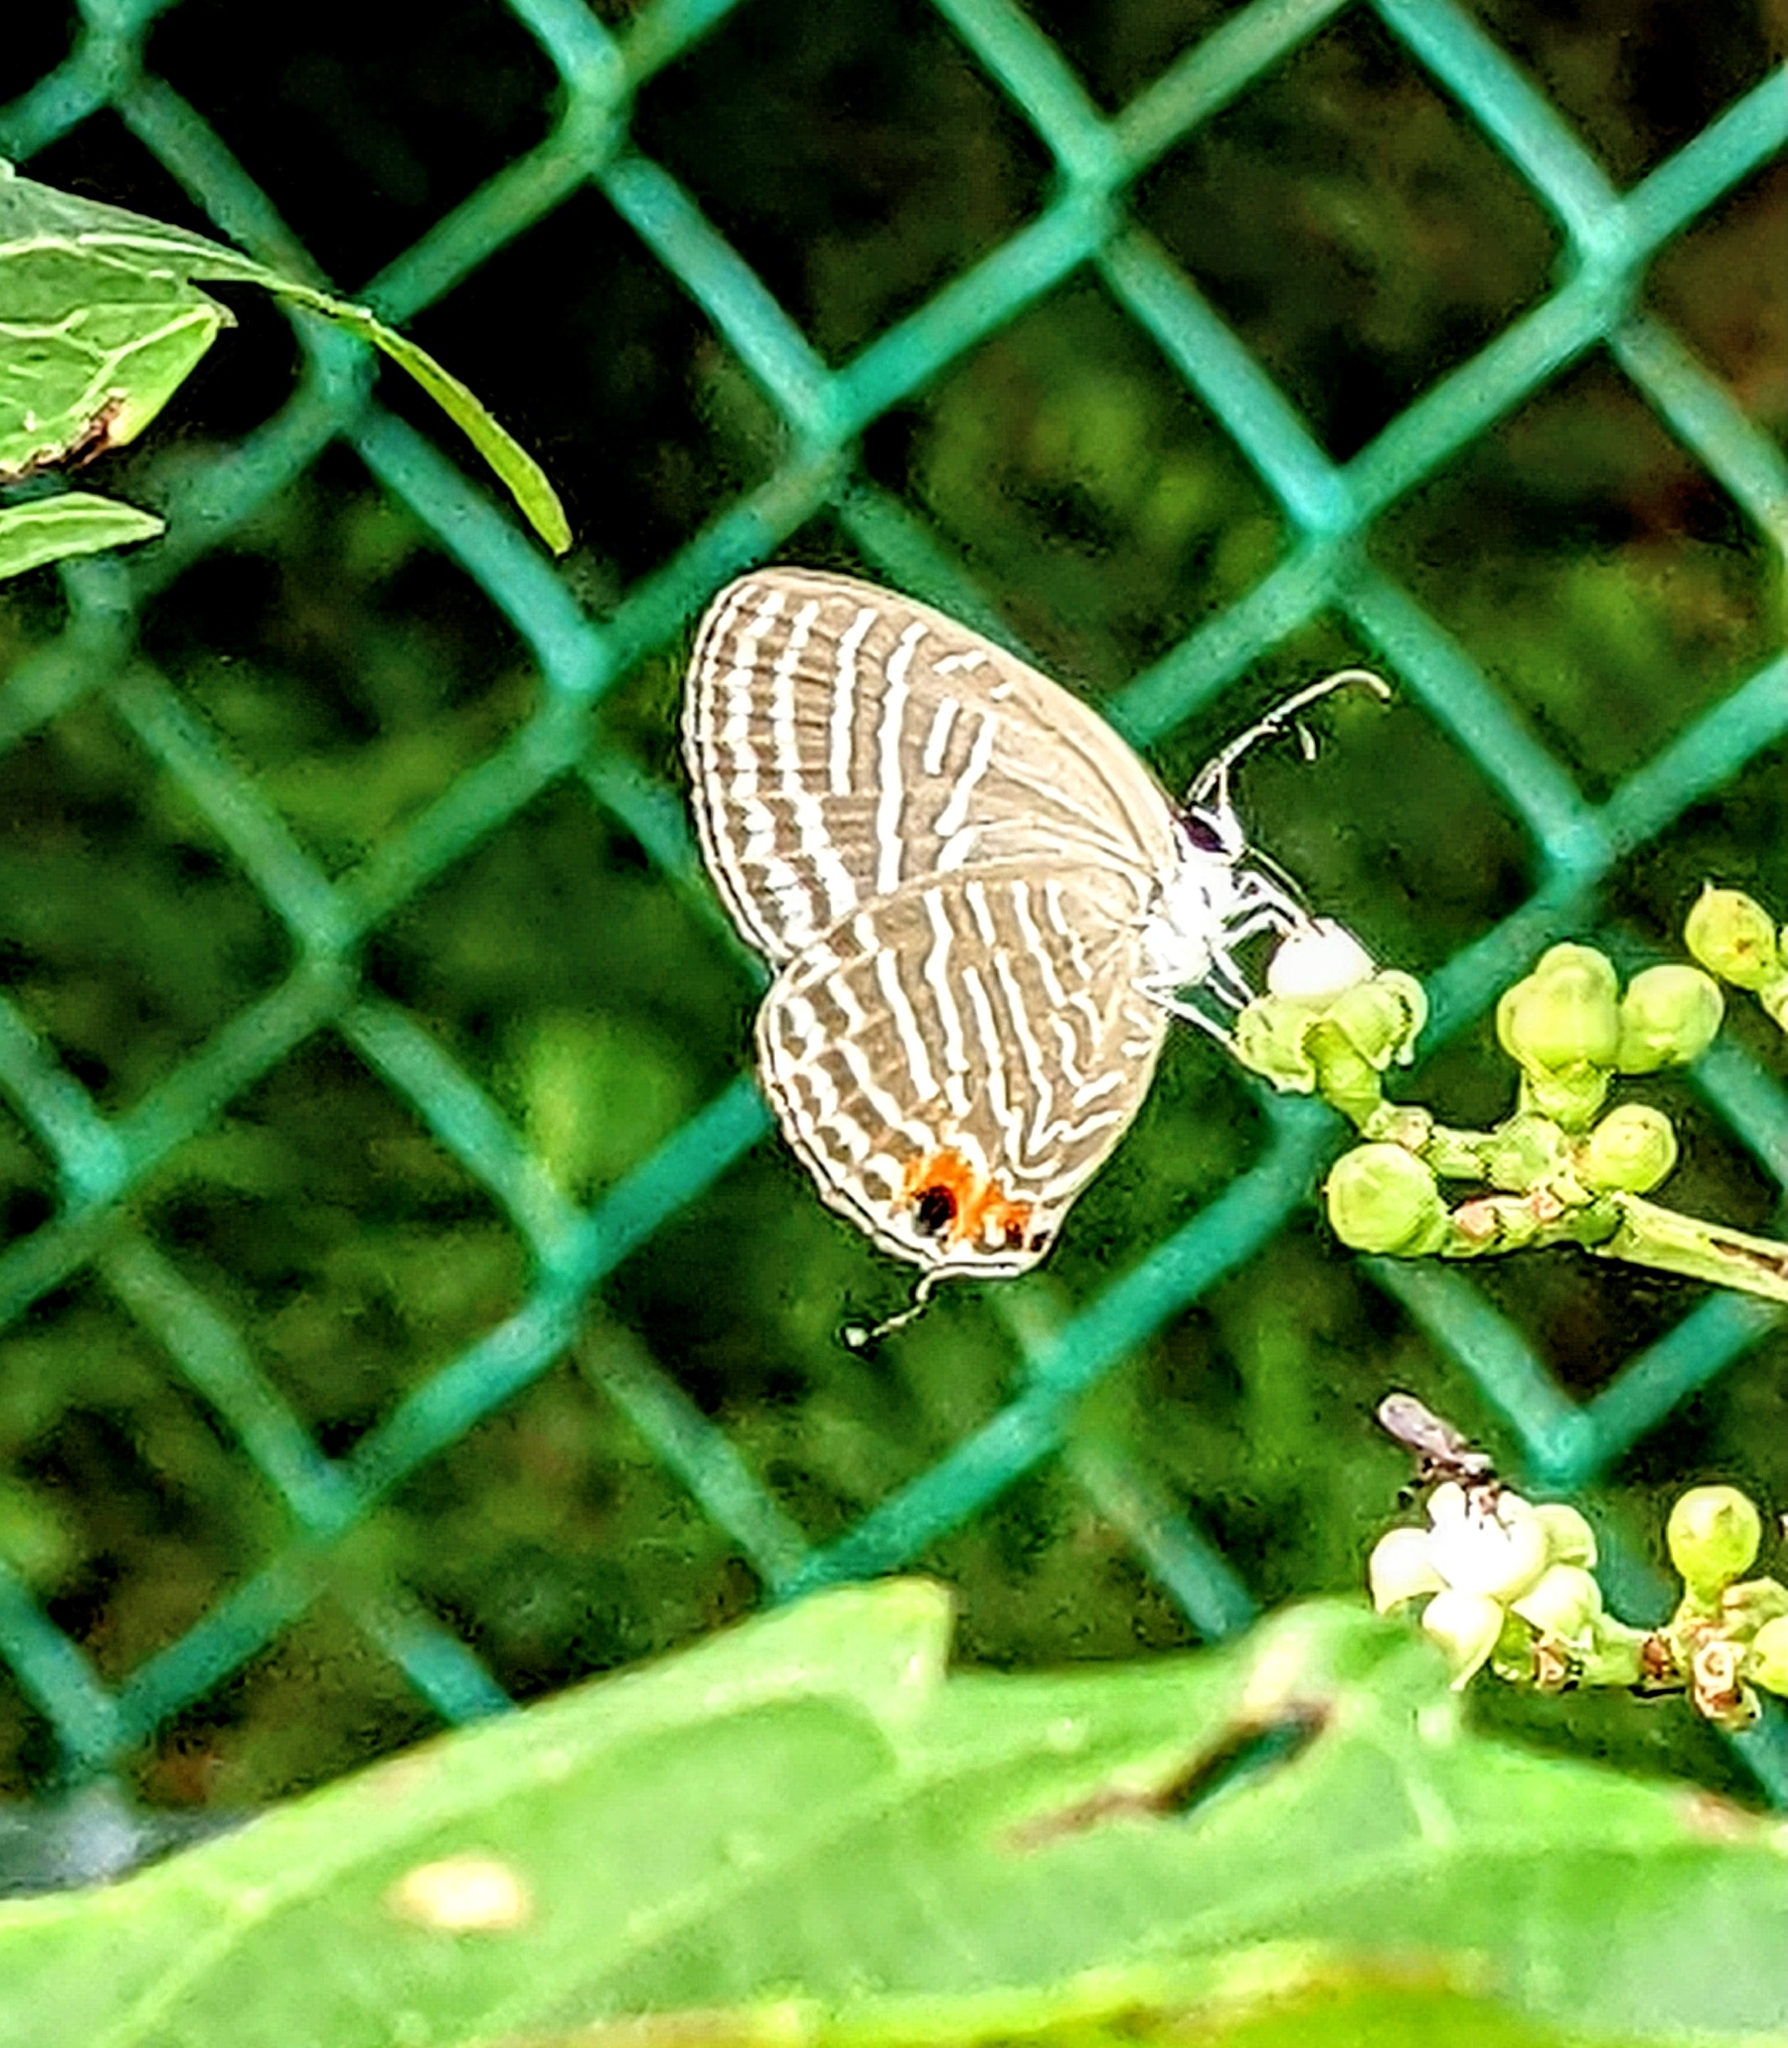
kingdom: Animalia
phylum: Arthropoda
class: Insecta
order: Lepidoptera
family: Lycaenidae
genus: Jamides
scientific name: Jamides celeno
